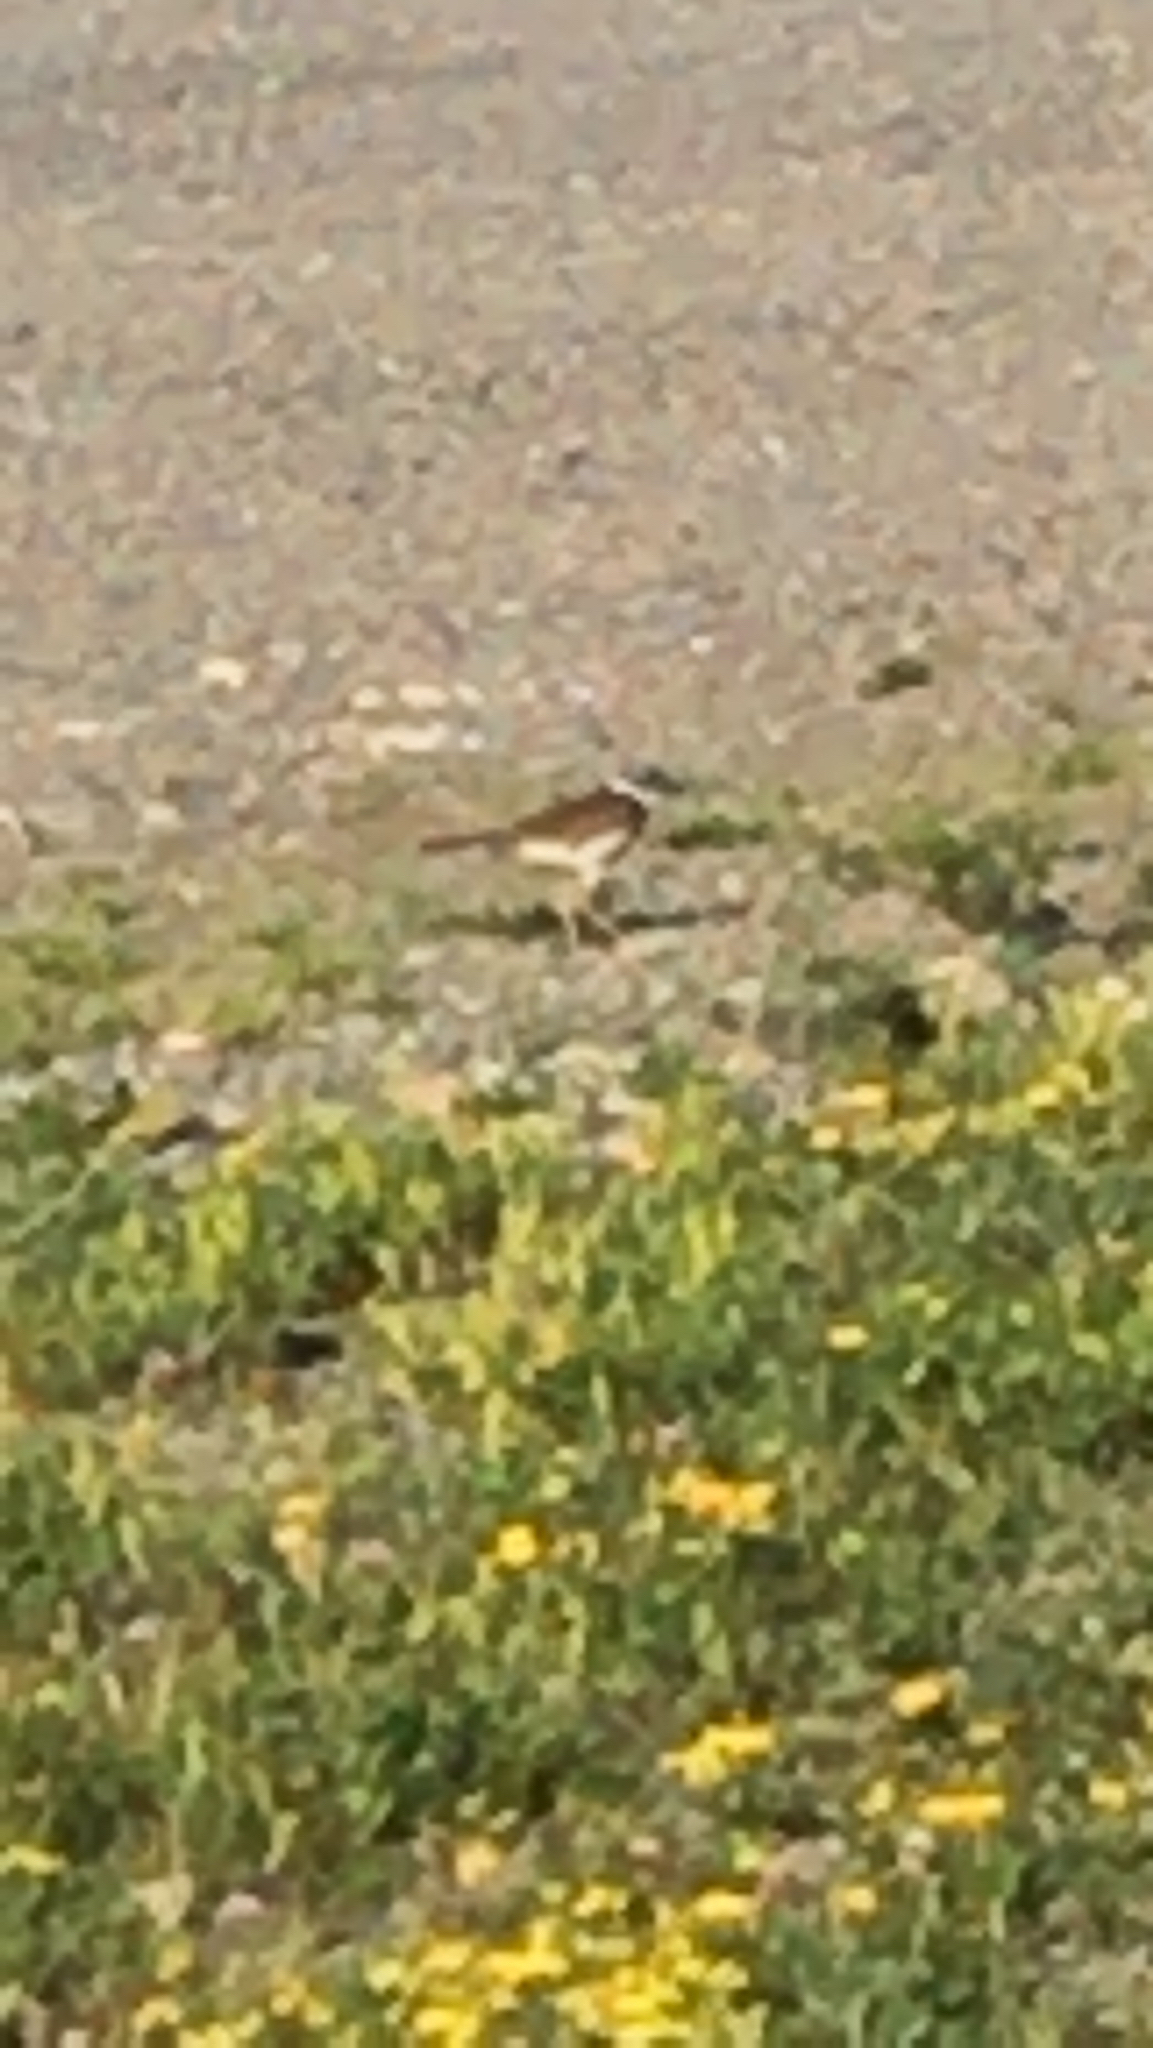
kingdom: Animalia
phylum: Chordata
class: Aves
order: Charadriiformes
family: Charadriidae
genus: Charadrius
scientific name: Charadrius vociferus
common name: Killdeer
